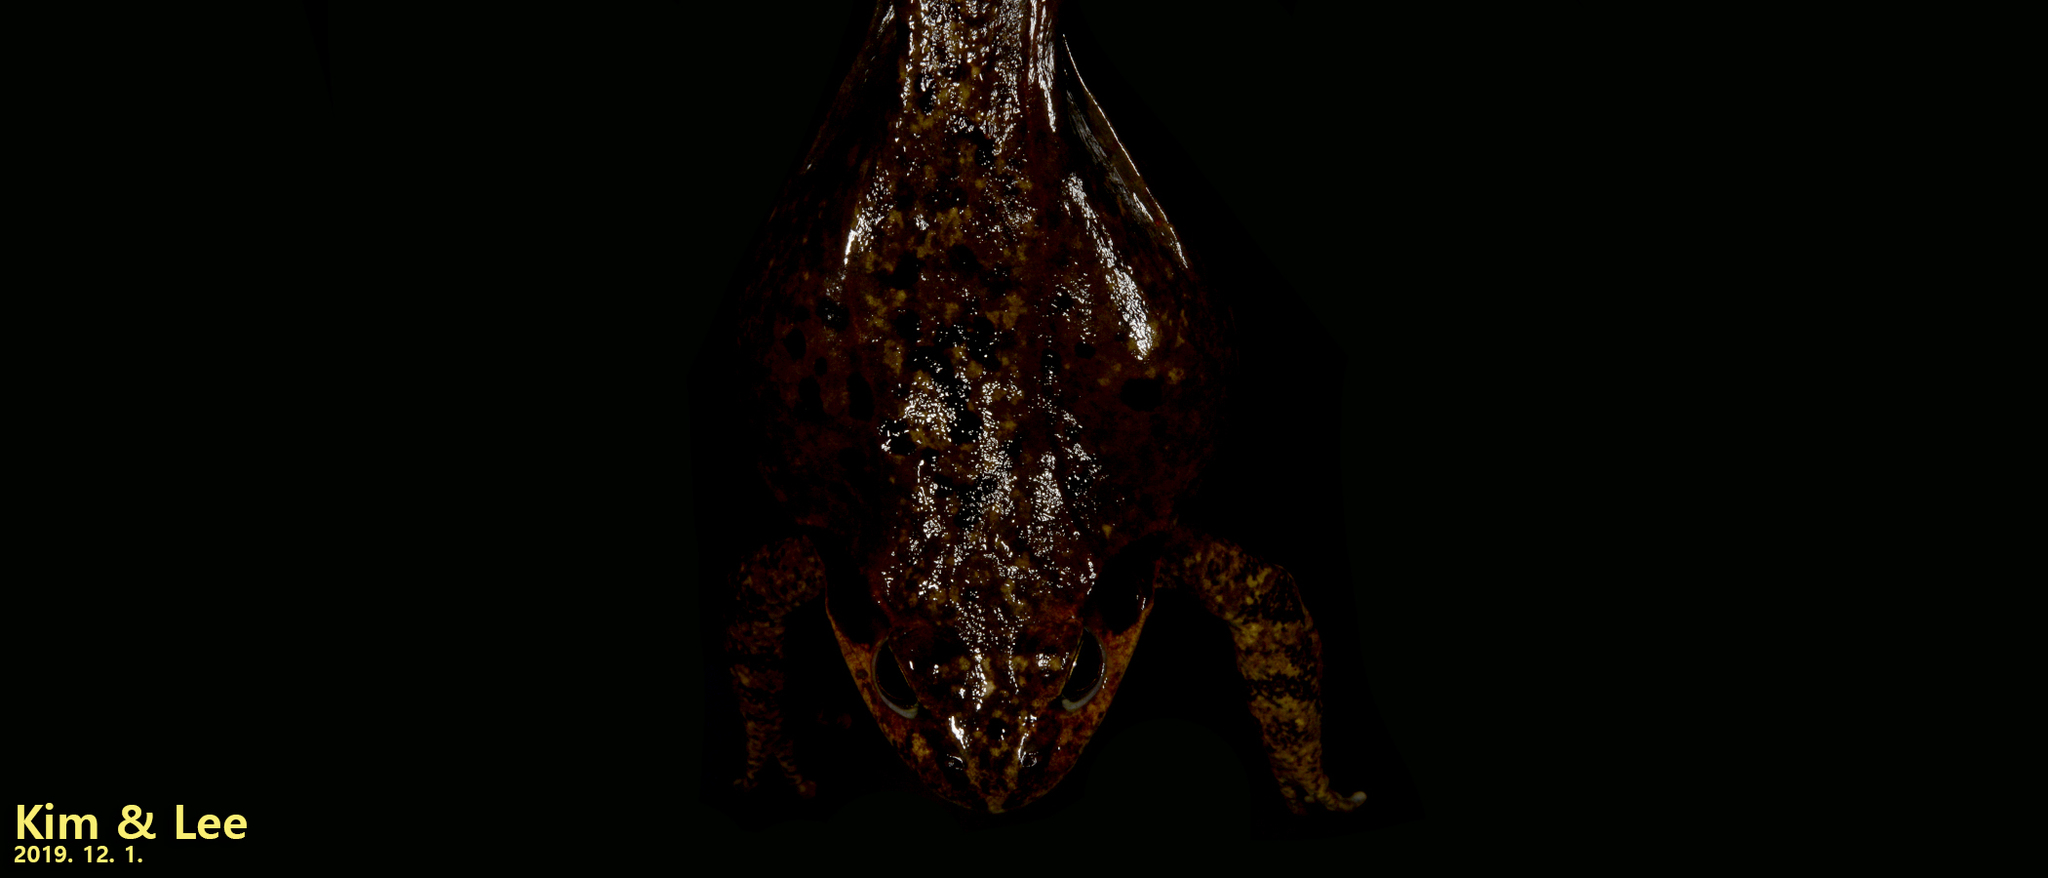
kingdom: Animalia
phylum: Chordata
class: Amphibia
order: Anura
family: Ranidae
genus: Rana
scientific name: Rana dybowskii
